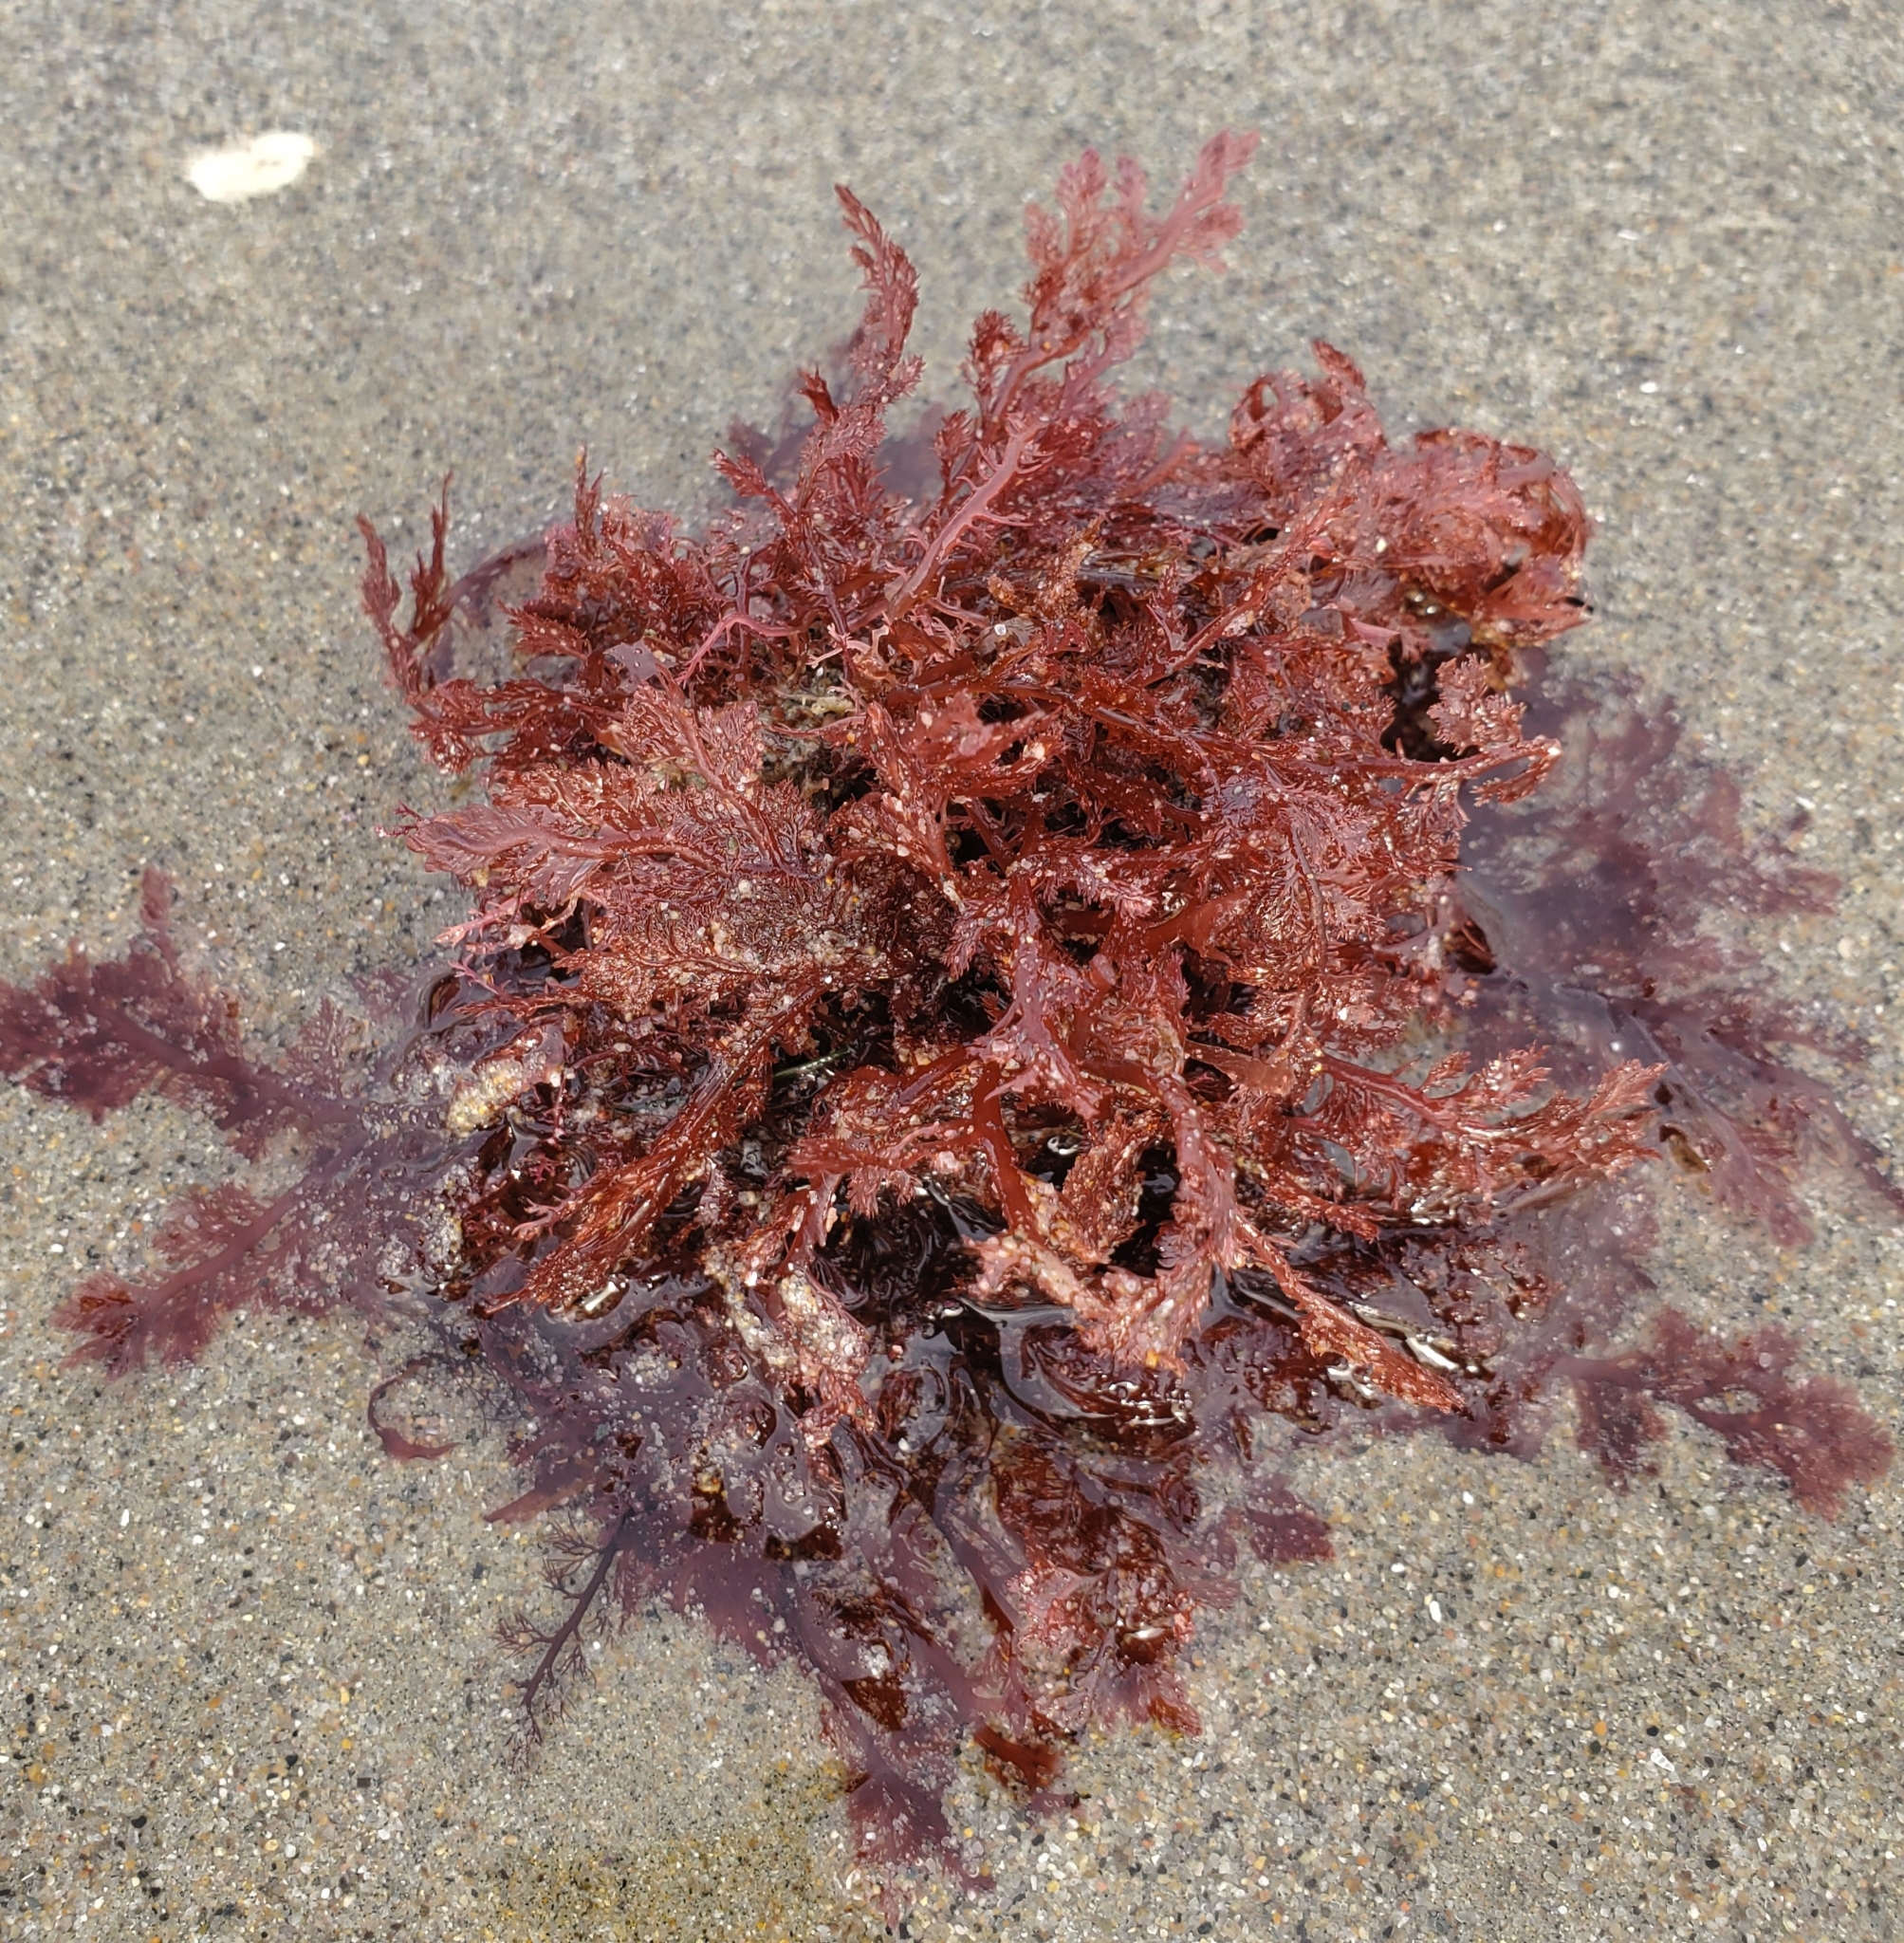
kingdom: Plantae
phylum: Rhodophyta
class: Florideophyceae
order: Plocamiales
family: Plocamiaceae
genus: Plocamium
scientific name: Plocamium cartilagineum
